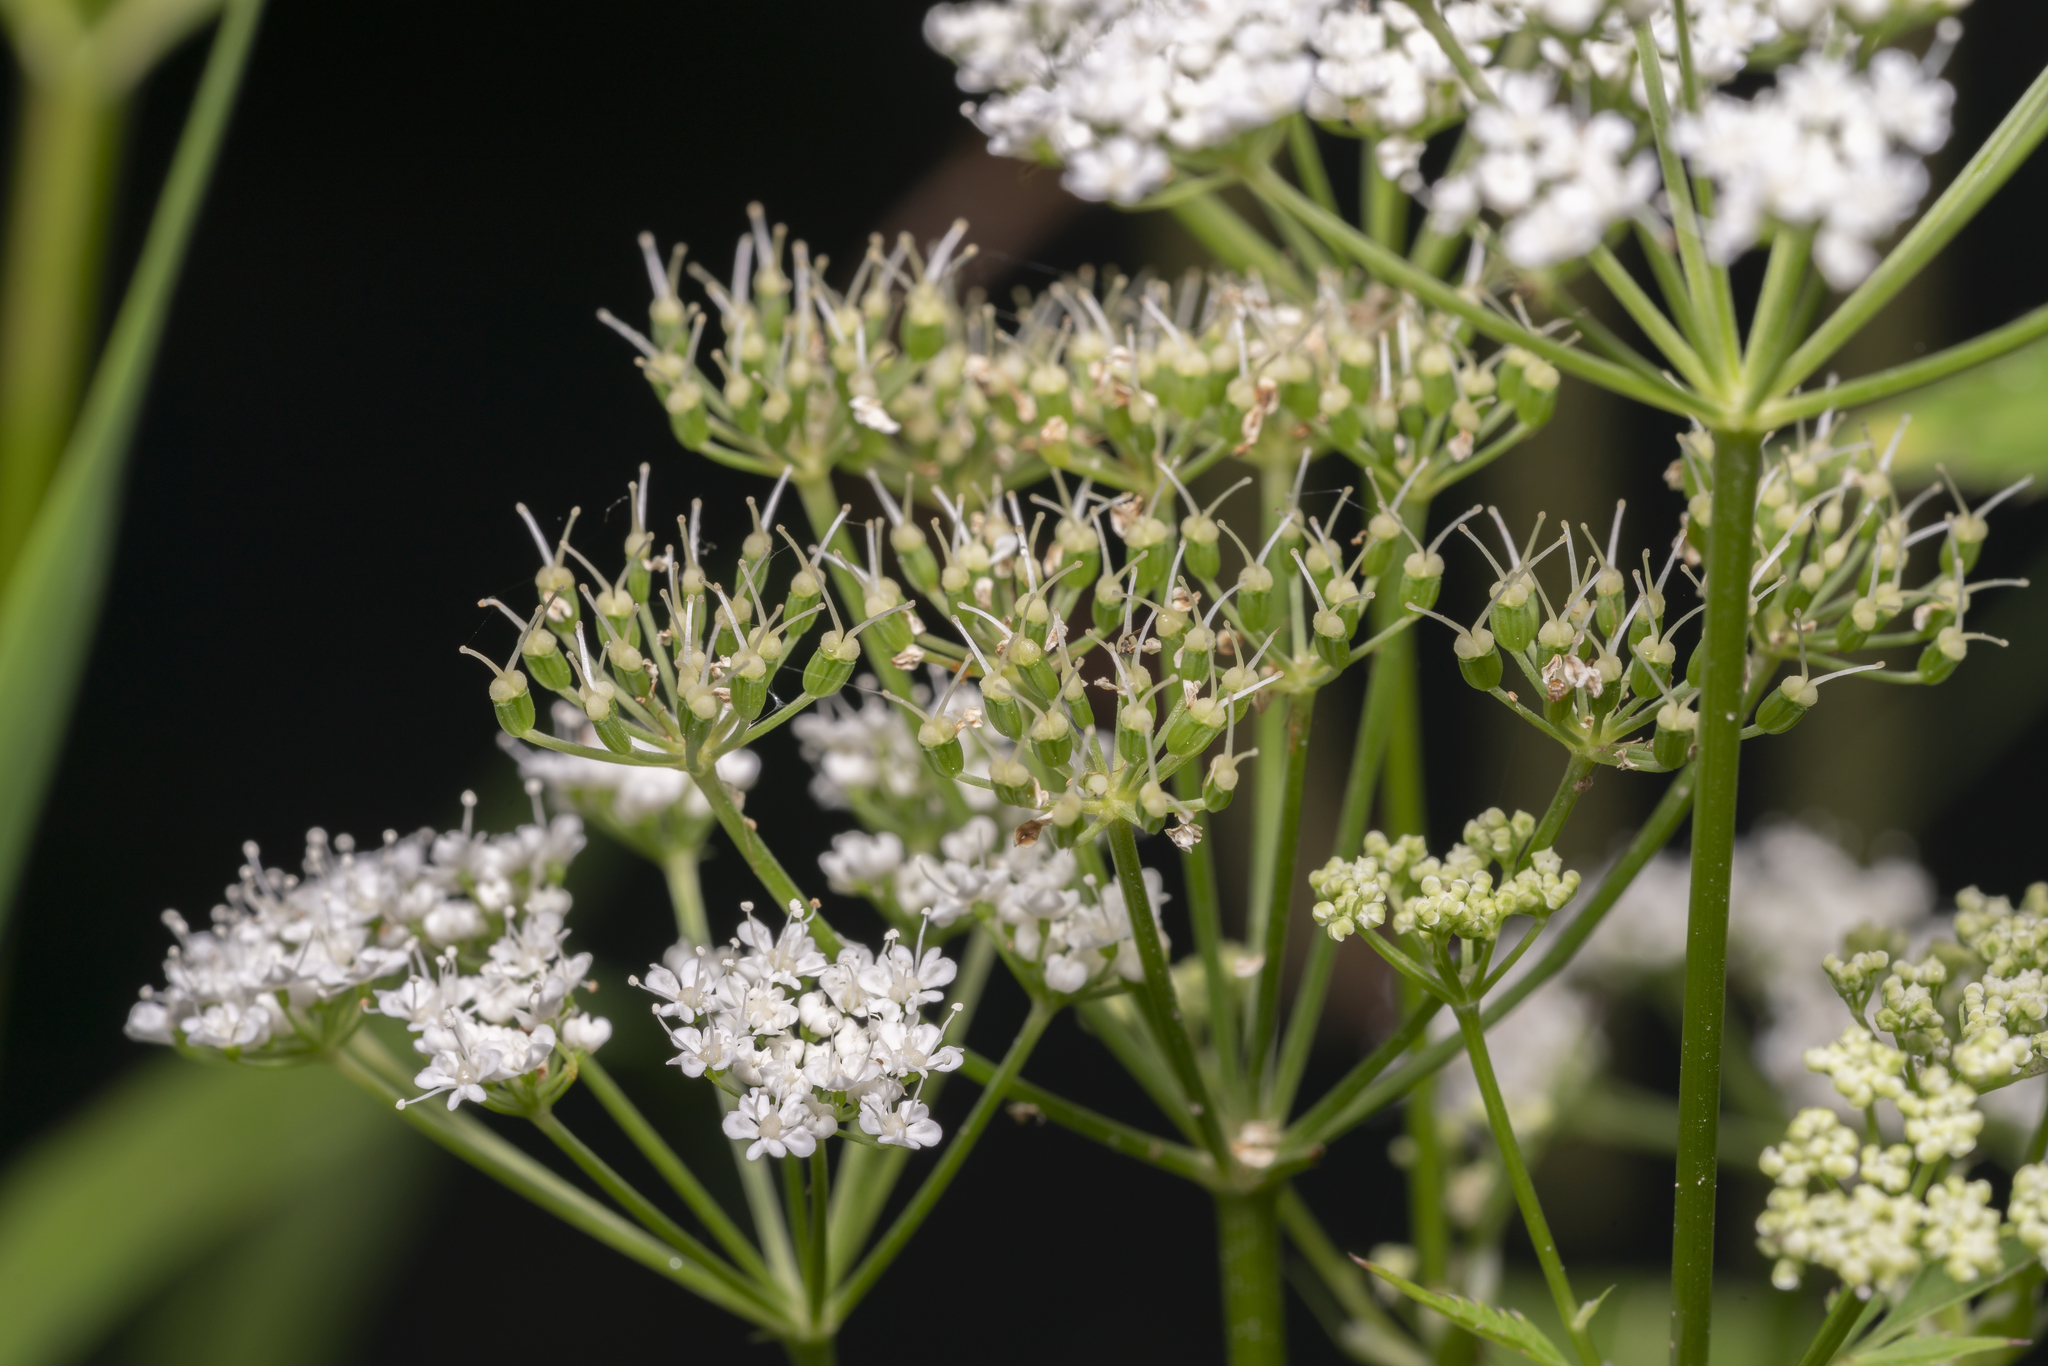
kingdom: Plantae
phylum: Tracheophyta
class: Magnoliopsida
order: Apiales
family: Apiaceae
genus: Aegopodium
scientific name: Aegopodium podagraria
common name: Ground-elder
